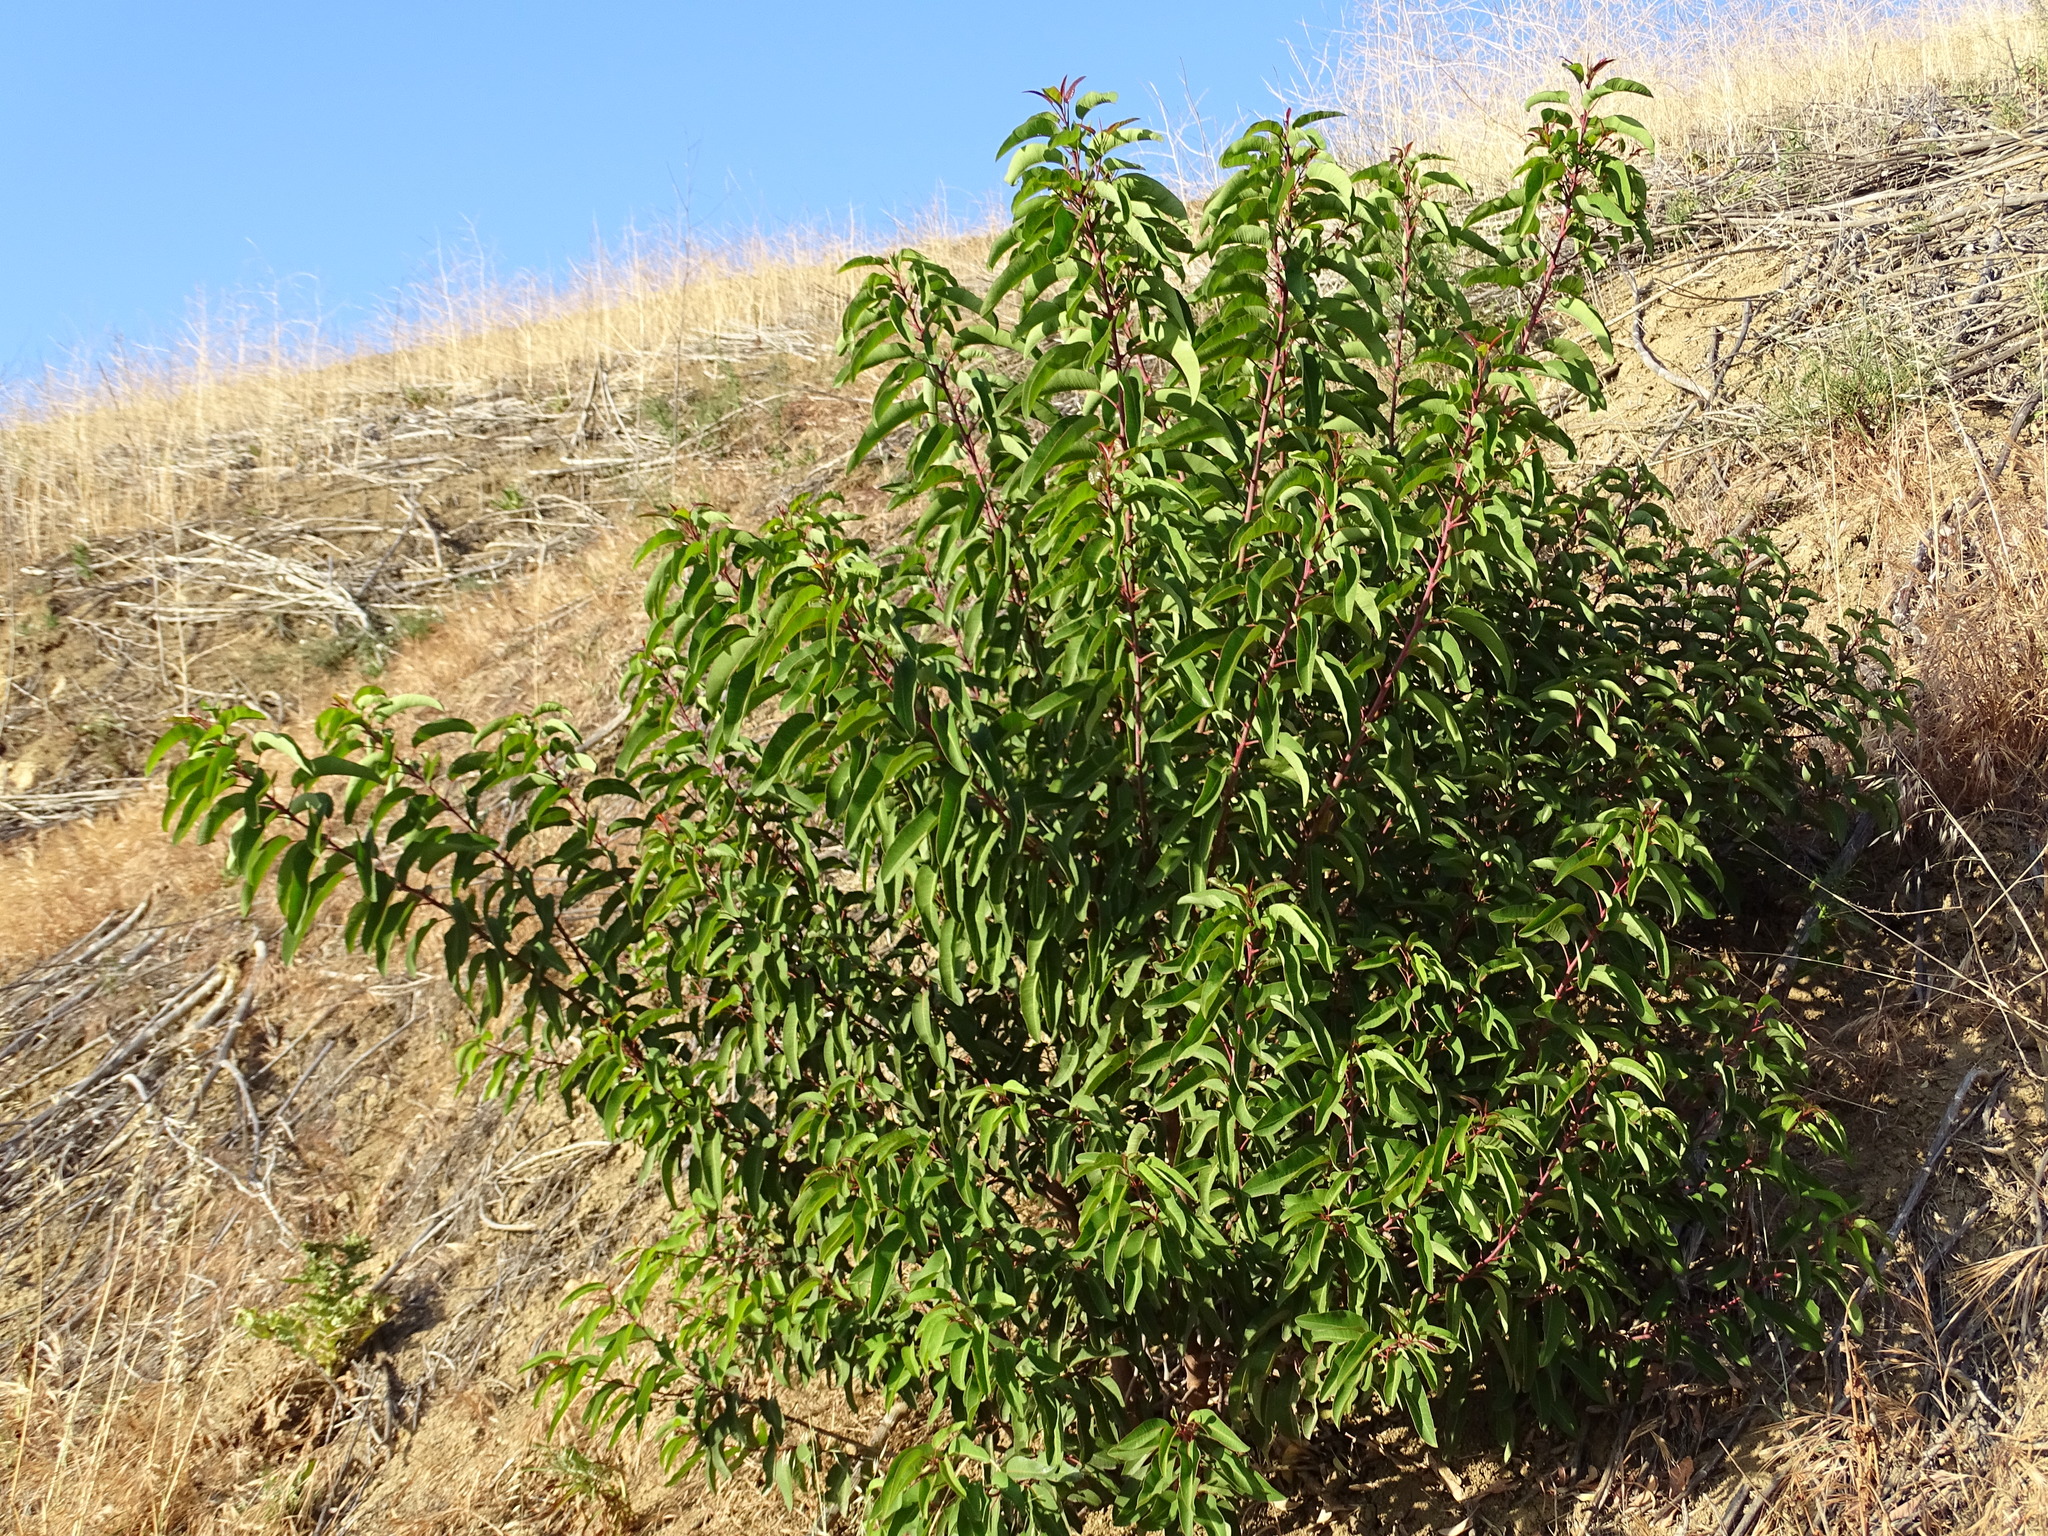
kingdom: Plantae
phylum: Tracheophyta
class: Magnoliopsida
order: Sapindales
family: Anacardiaceae
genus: Malosma
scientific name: Malosma laurina
